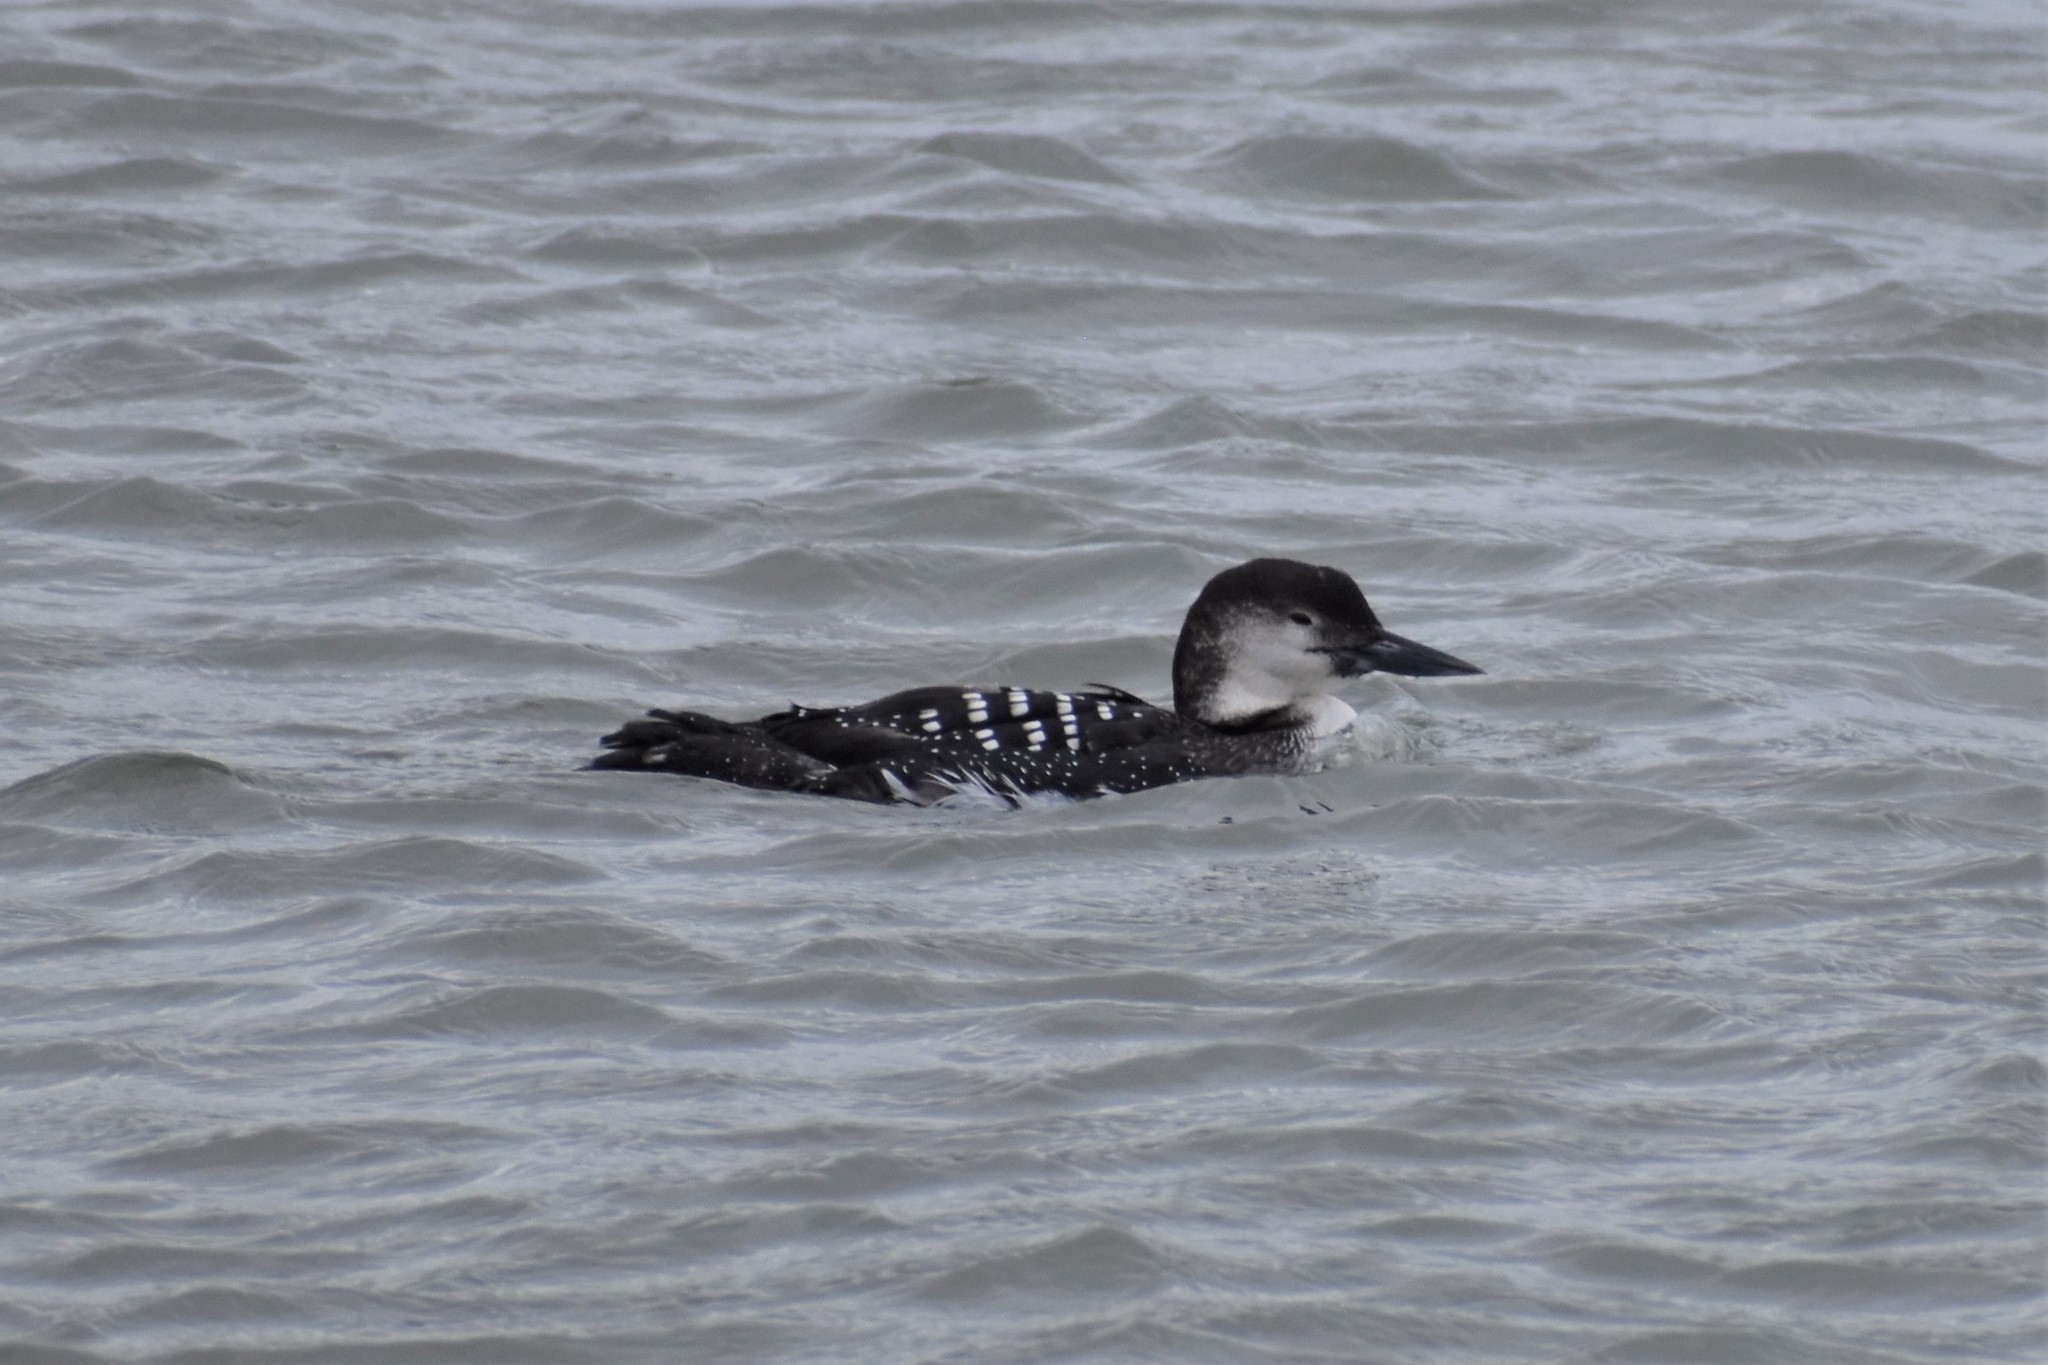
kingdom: Animalia
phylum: Chordata
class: Aves
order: Gaviiformes
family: Gaviidae
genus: Gavia
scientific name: Gavia immer
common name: Common loon
